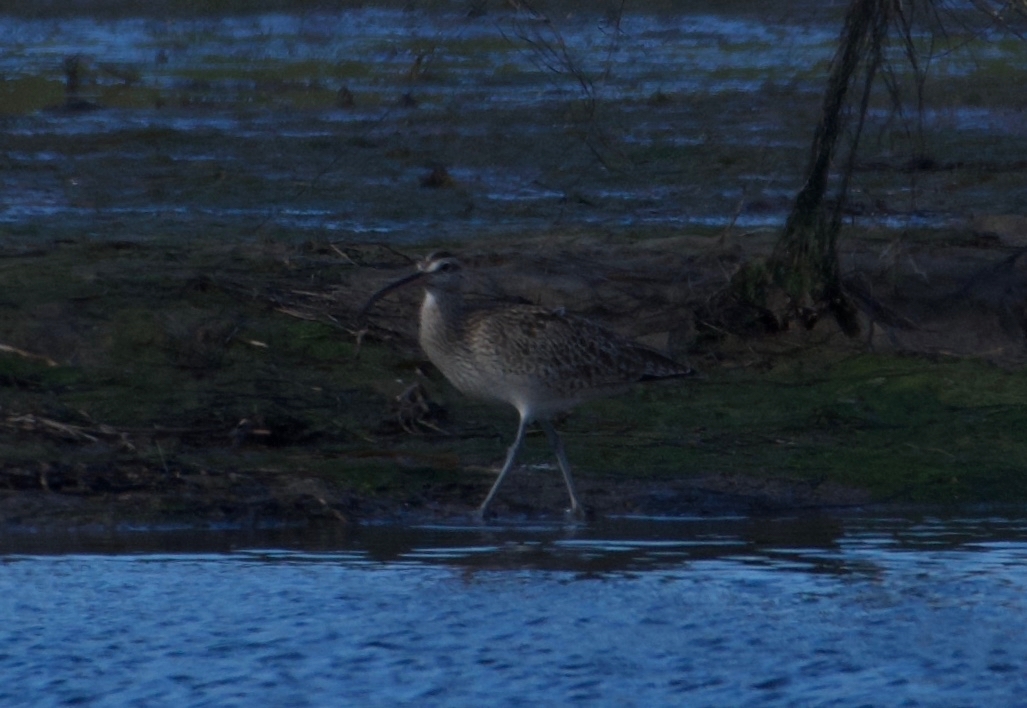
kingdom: Animalia
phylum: Chordata
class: Aves
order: Charadriiformes
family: Scolopacidae
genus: Numenius
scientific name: Numenius phaeopus
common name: Whimbrel
